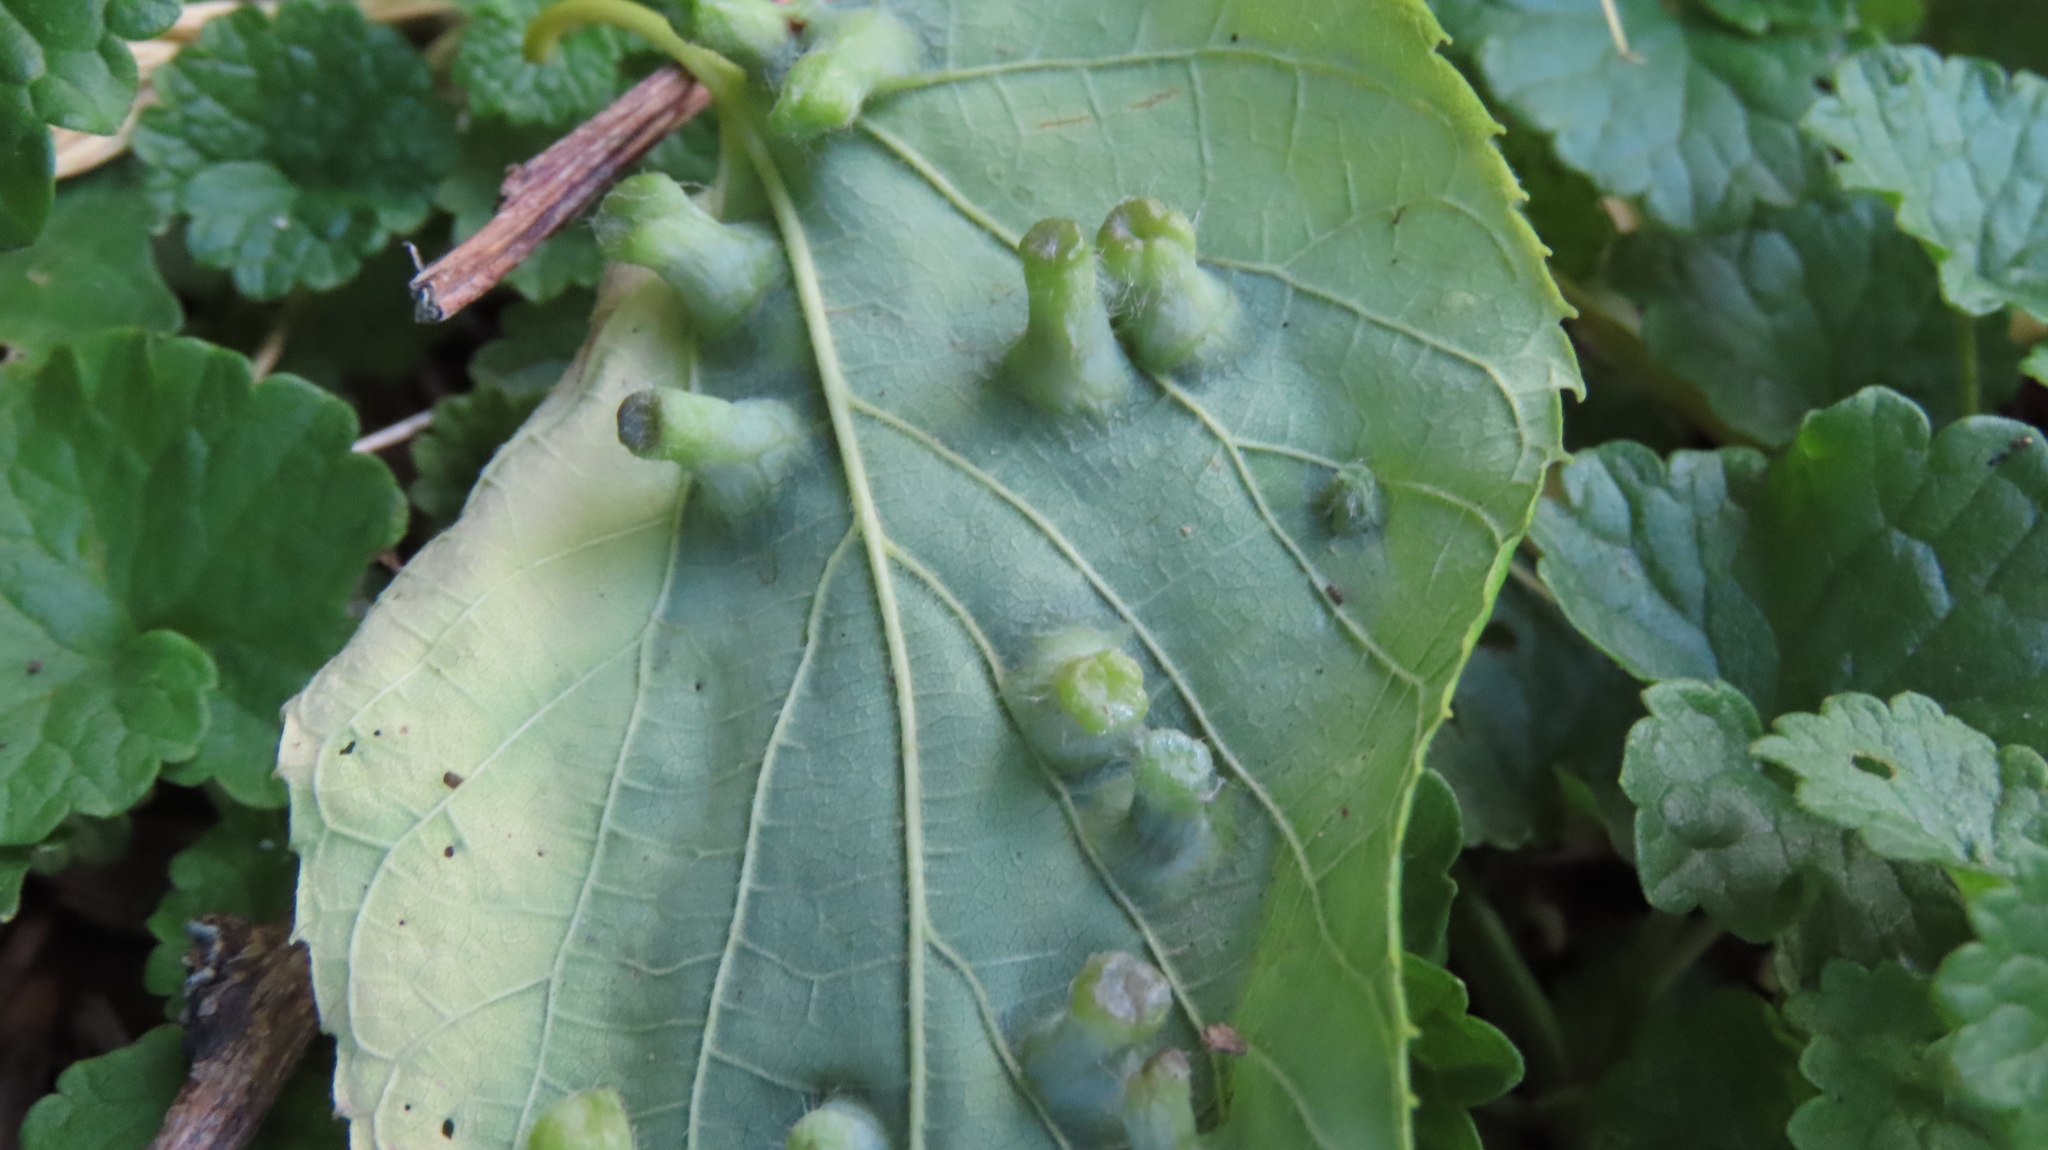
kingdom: Animalia
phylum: Arthropoda
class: Insecta
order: Hemiptera
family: Aphalaridae
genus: Pachypsylla
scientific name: Pachypsylla celtidismamma
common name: Hackberry nipplegall psyllid
